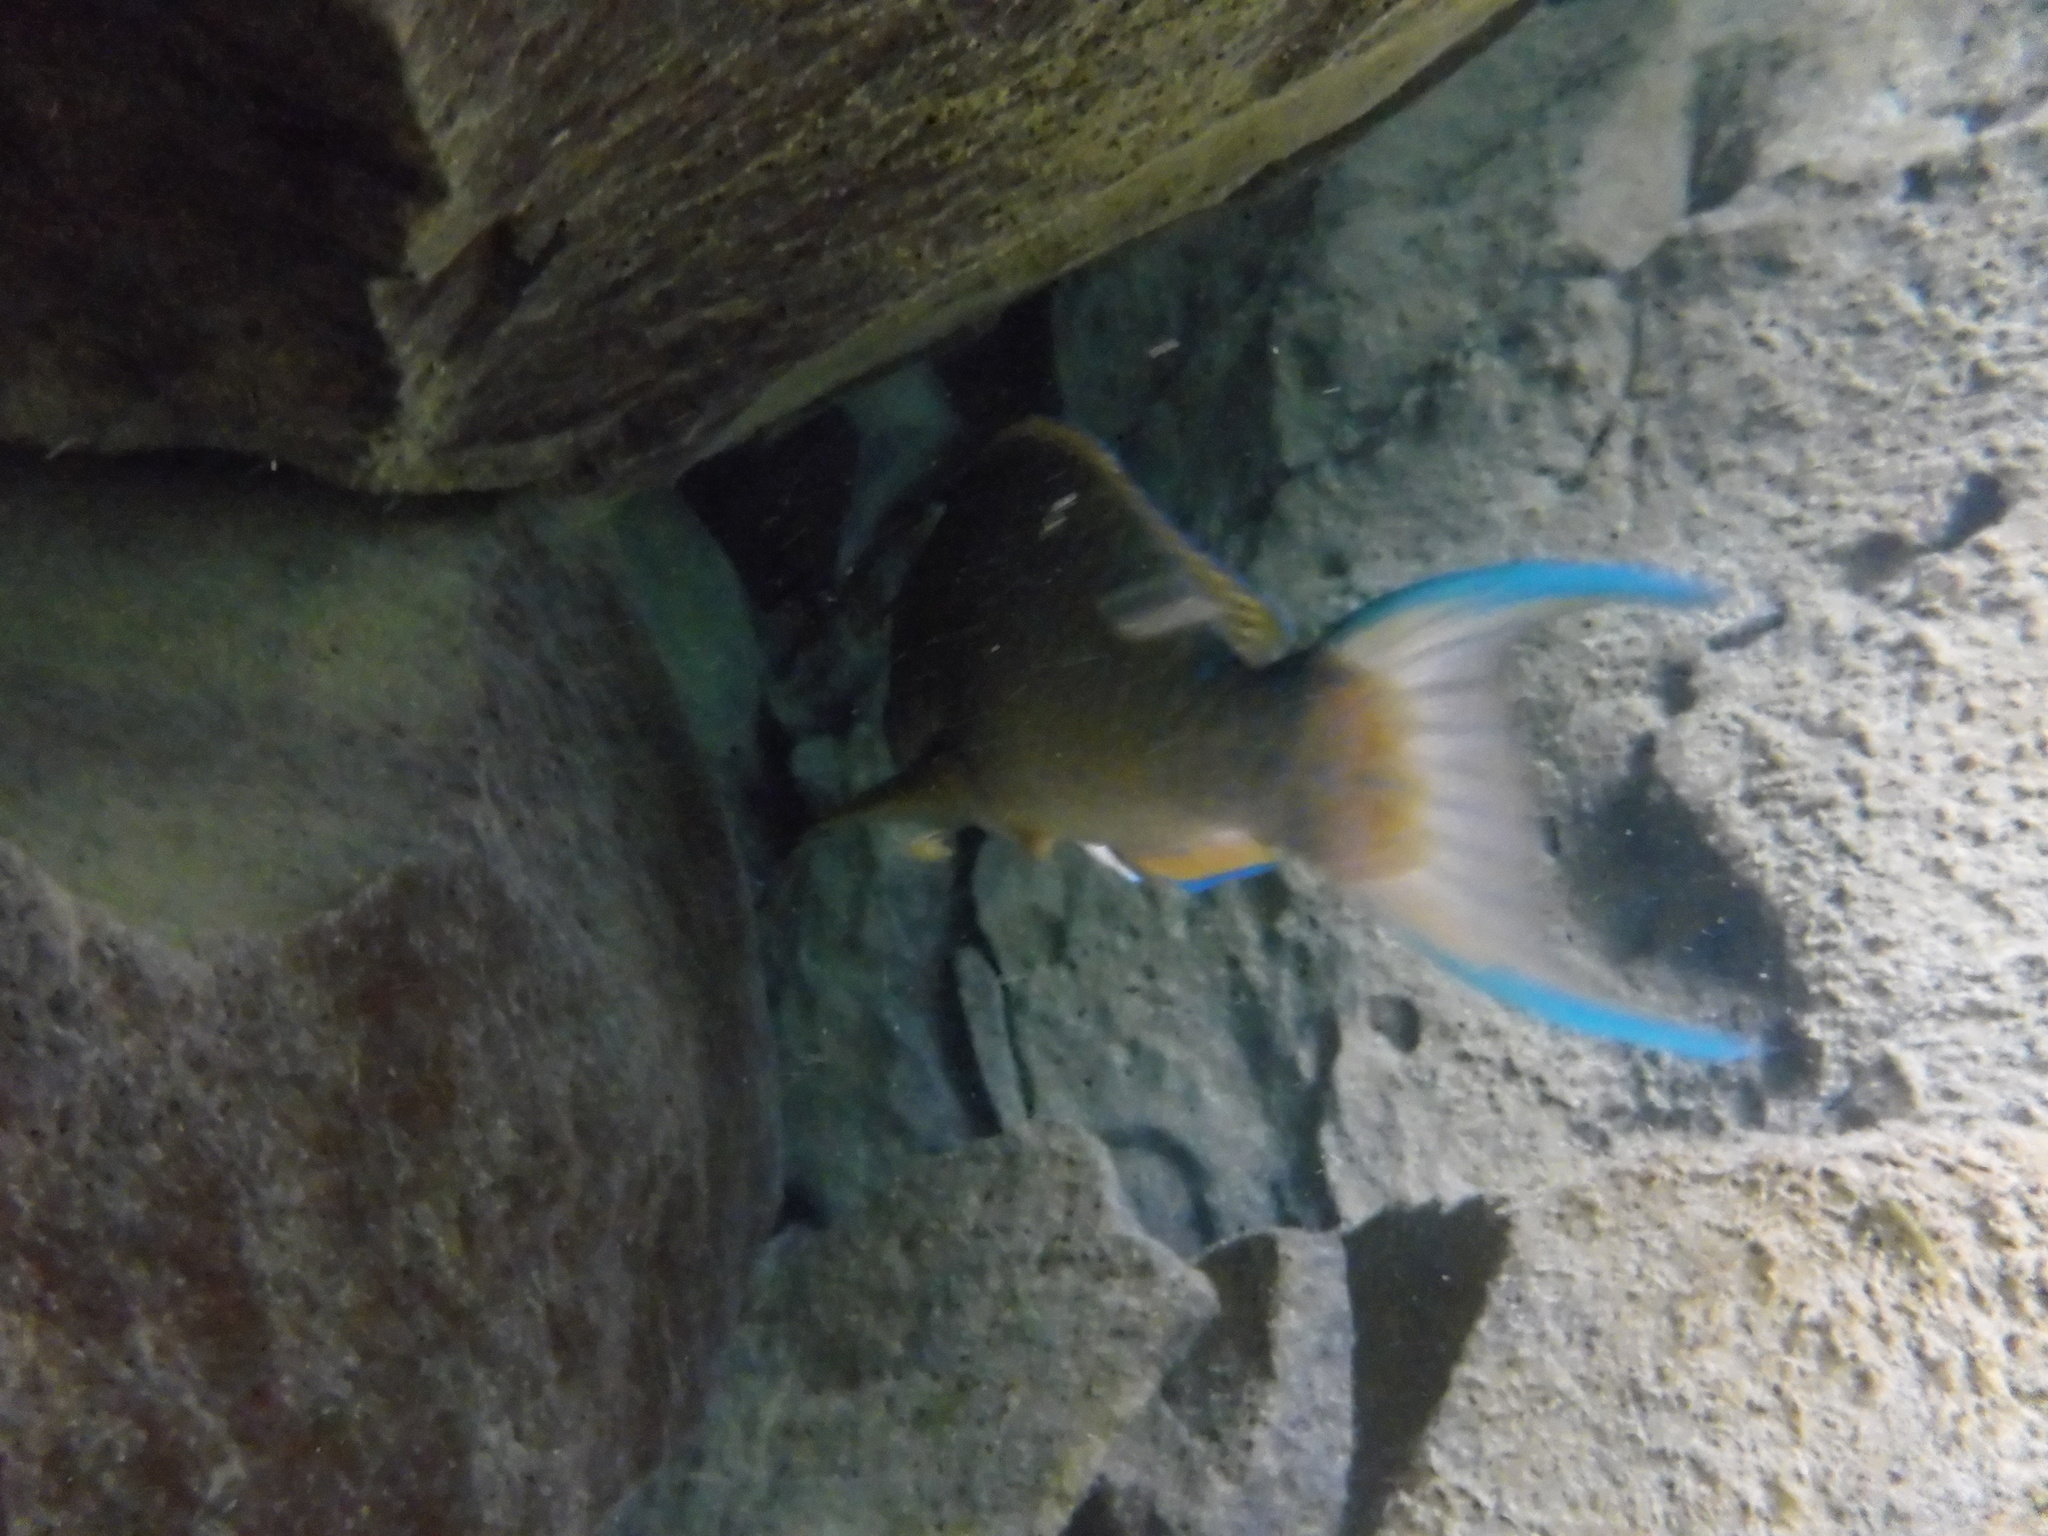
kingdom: Animalia
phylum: Chordata
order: Perciformes
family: Scaridae
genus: Scarus
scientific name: Scarus ghobban
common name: Blue-barred parrotfish
